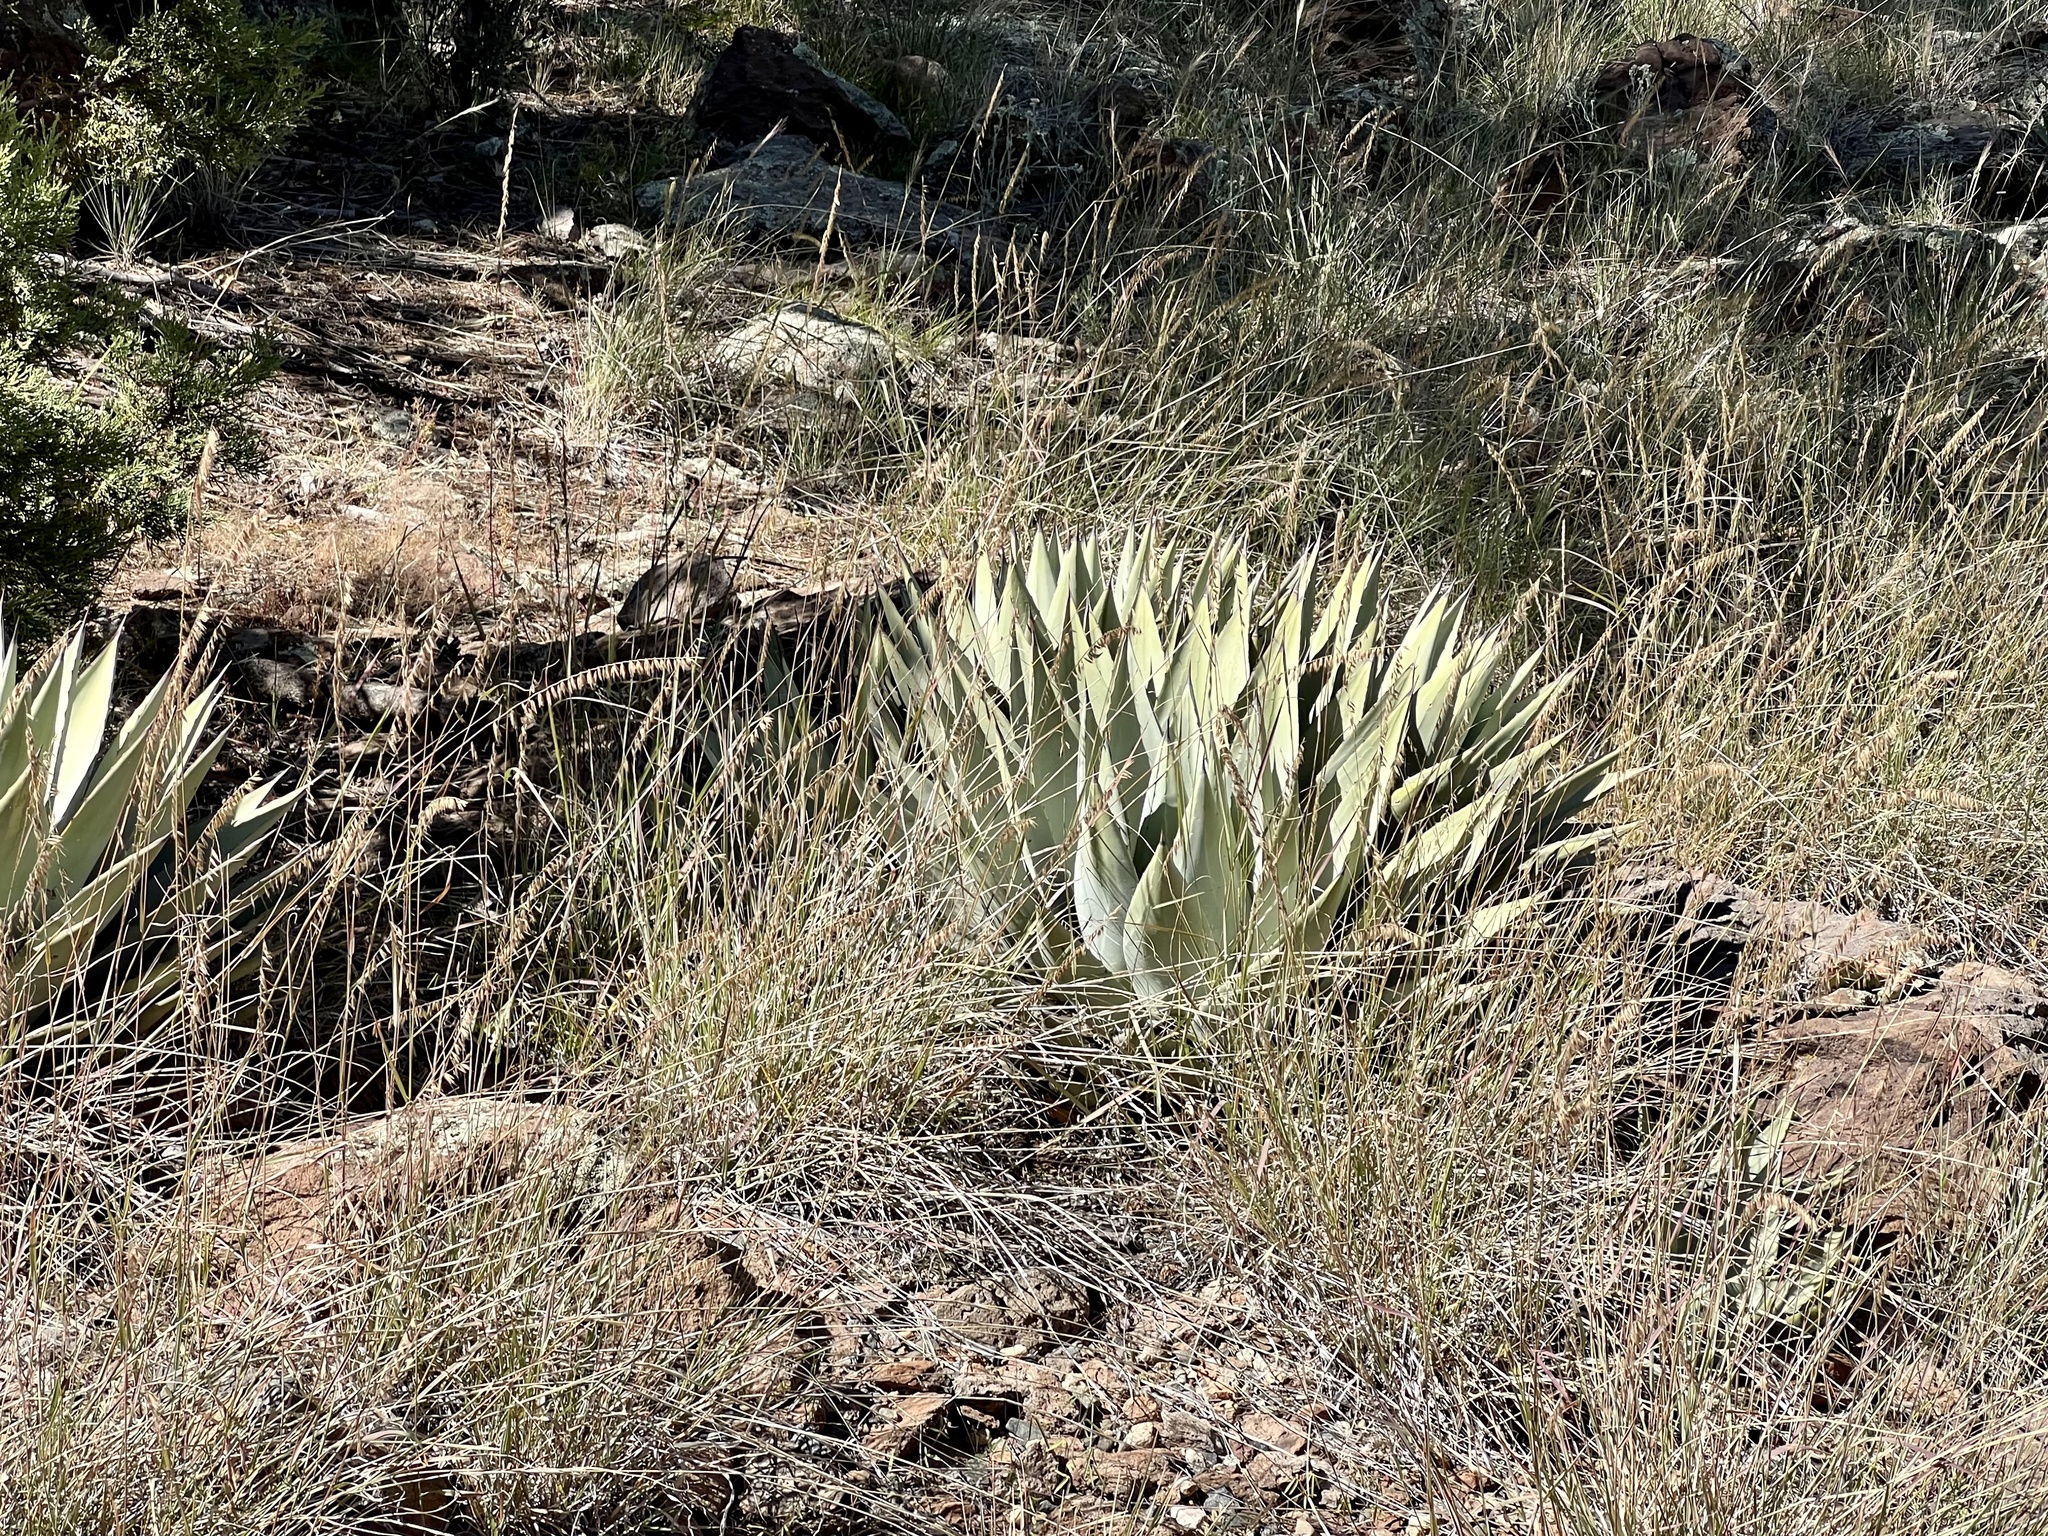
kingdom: Plantae
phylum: Tracheophyta
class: Liliopsida
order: Asparagales
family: Asparagaceae
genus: Agave
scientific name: Agave parryi
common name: Parry's agave
